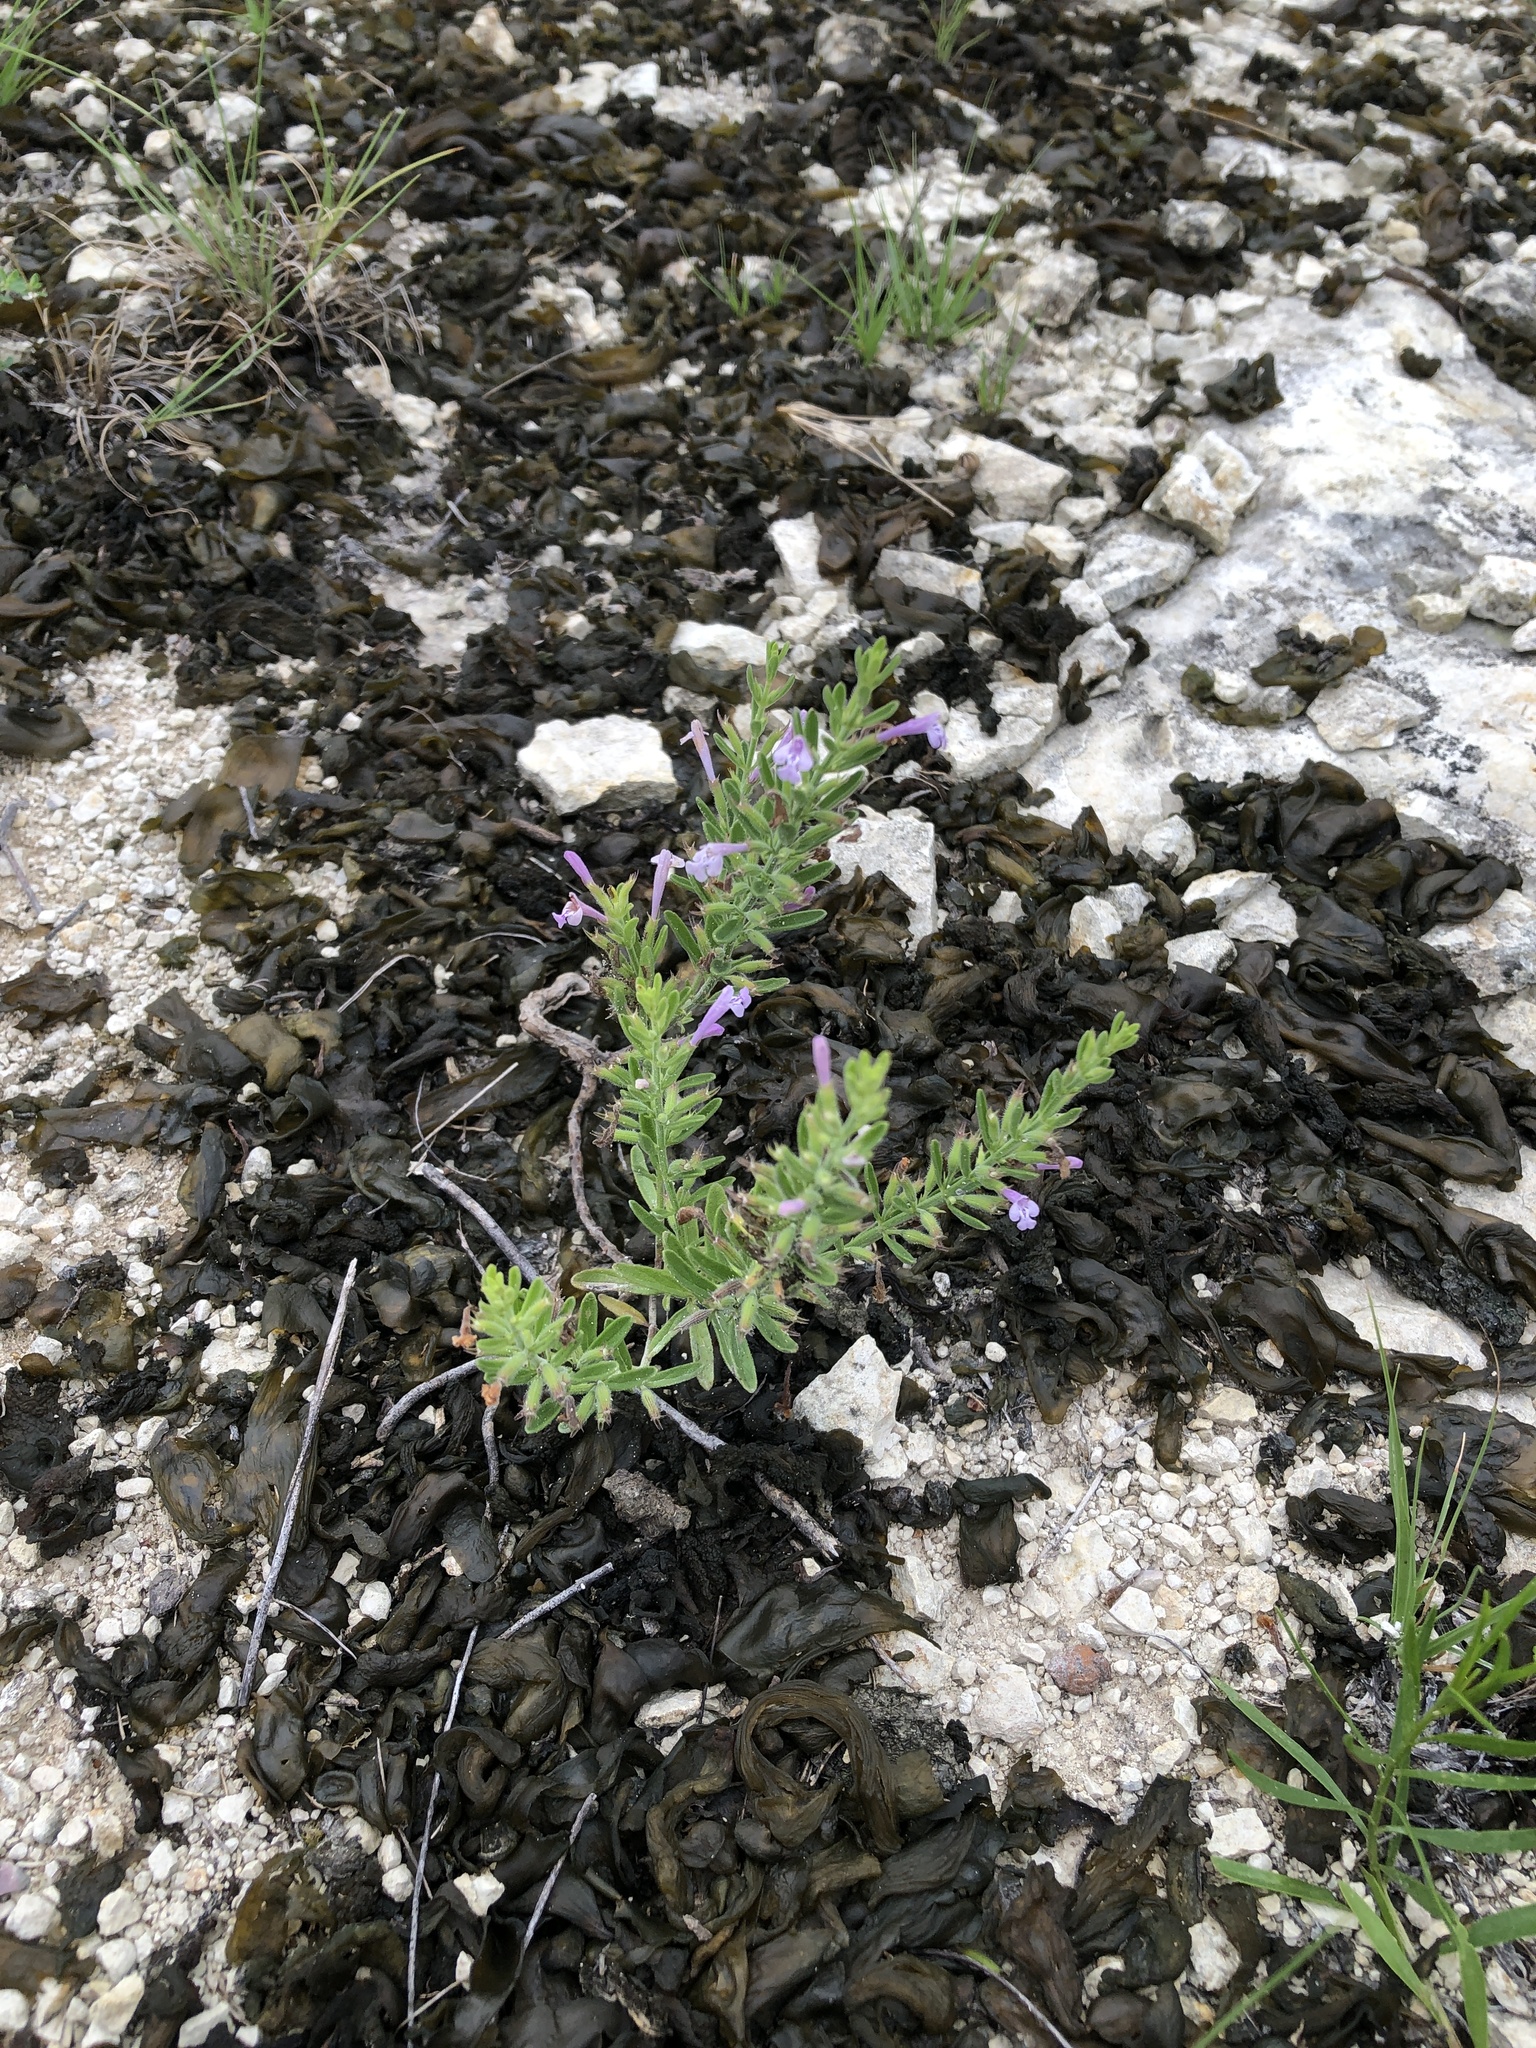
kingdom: Plantae
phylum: Tracheophyta
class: Magnoliopsida
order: Lamiales
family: Lamiaceae
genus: Hedeoma
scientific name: Hedeoma reverchonii
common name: Reverchon's false penny-royal
